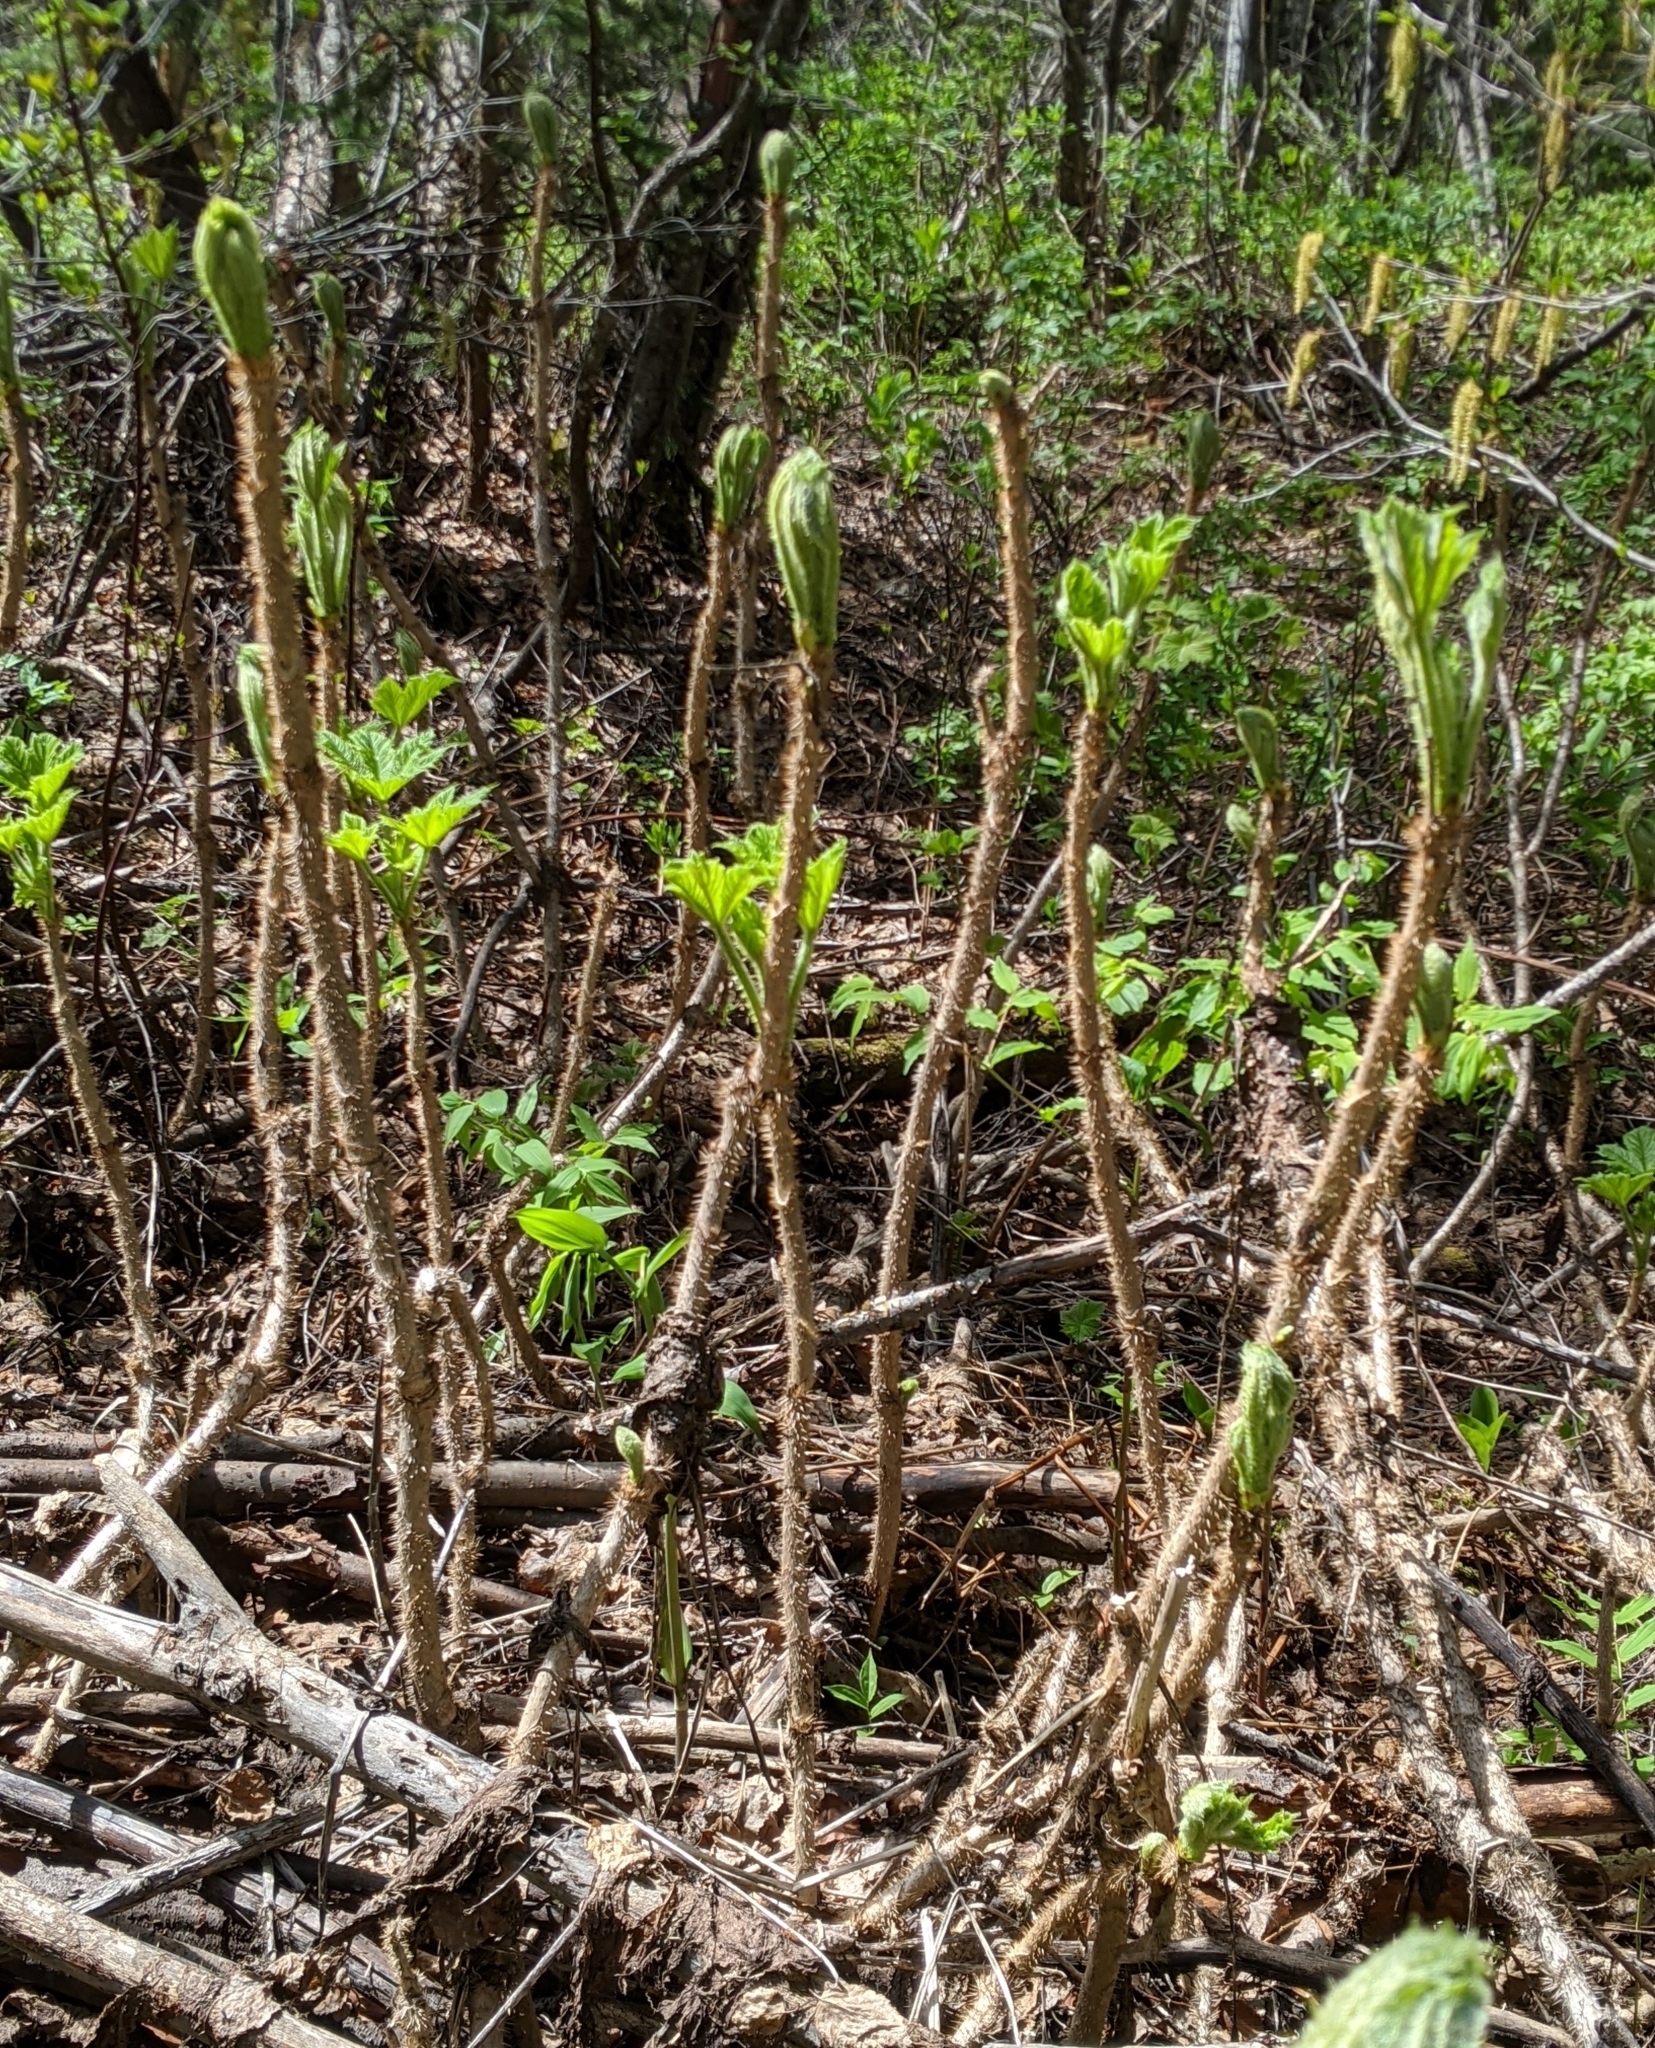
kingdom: Plantae
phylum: Tracheophyta
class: Magnoliopsida
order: Apiales
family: Araliaceae
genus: Oplopanax
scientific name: Oplopanax horridus
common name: Devil's walking-stick
